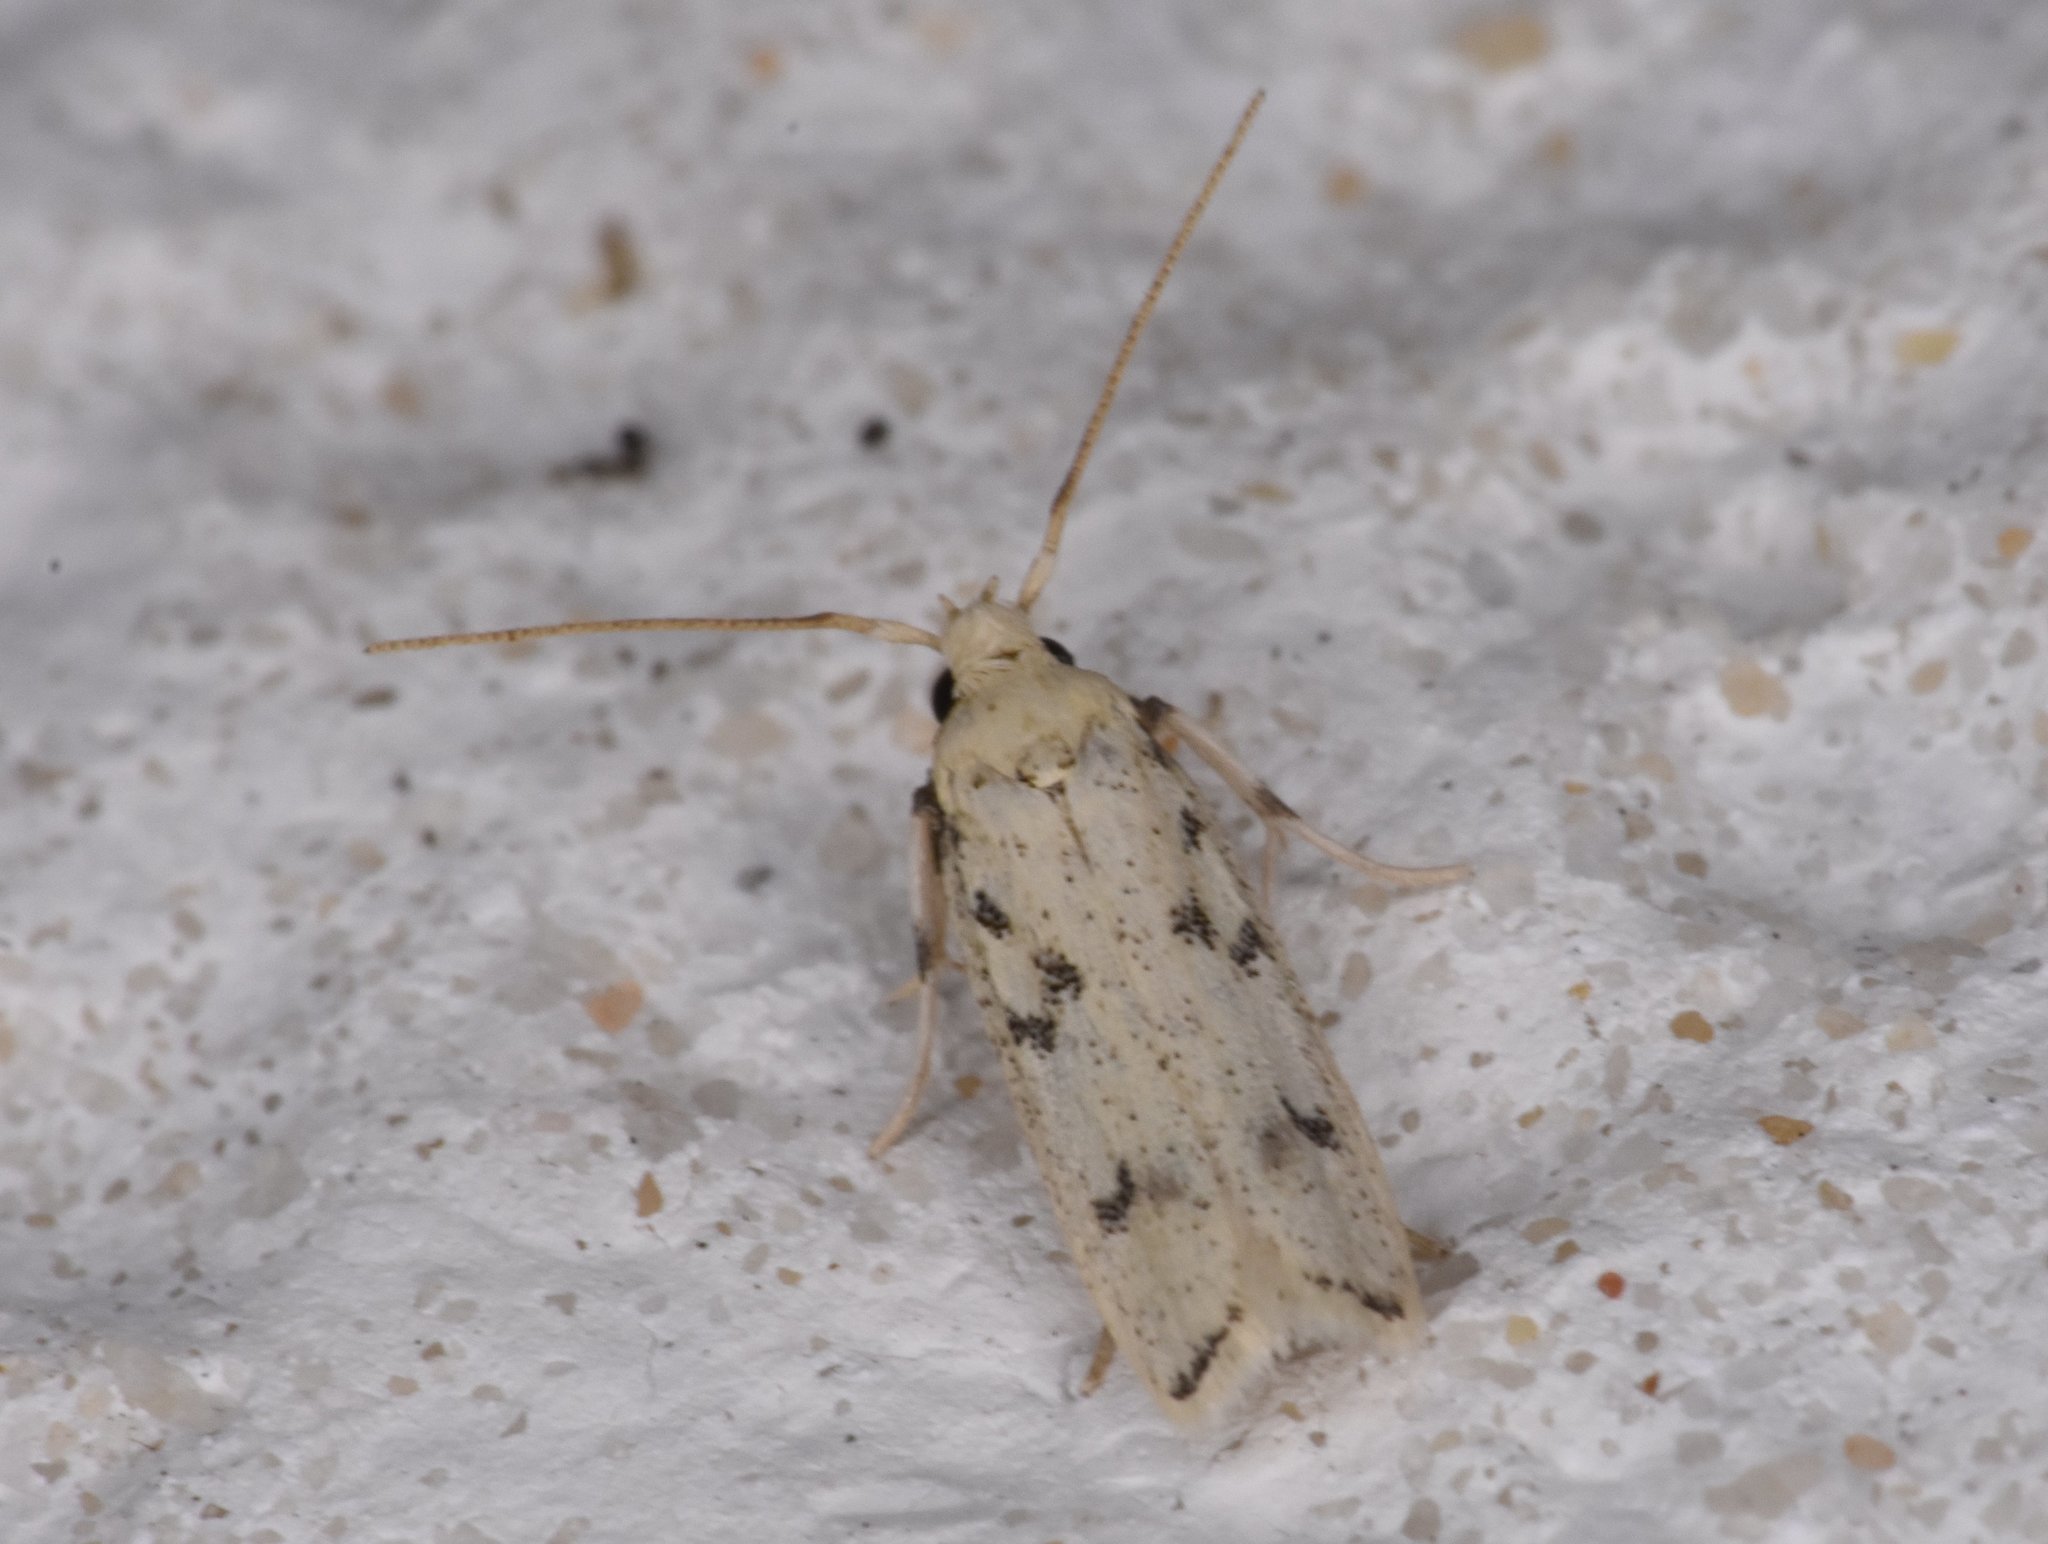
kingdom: Animalia
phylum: Arthropoda
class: Insecta
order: Lepidoptera
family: Autostichidae
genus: Glyphidocera
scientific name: Glyphidocera lactiflosella
